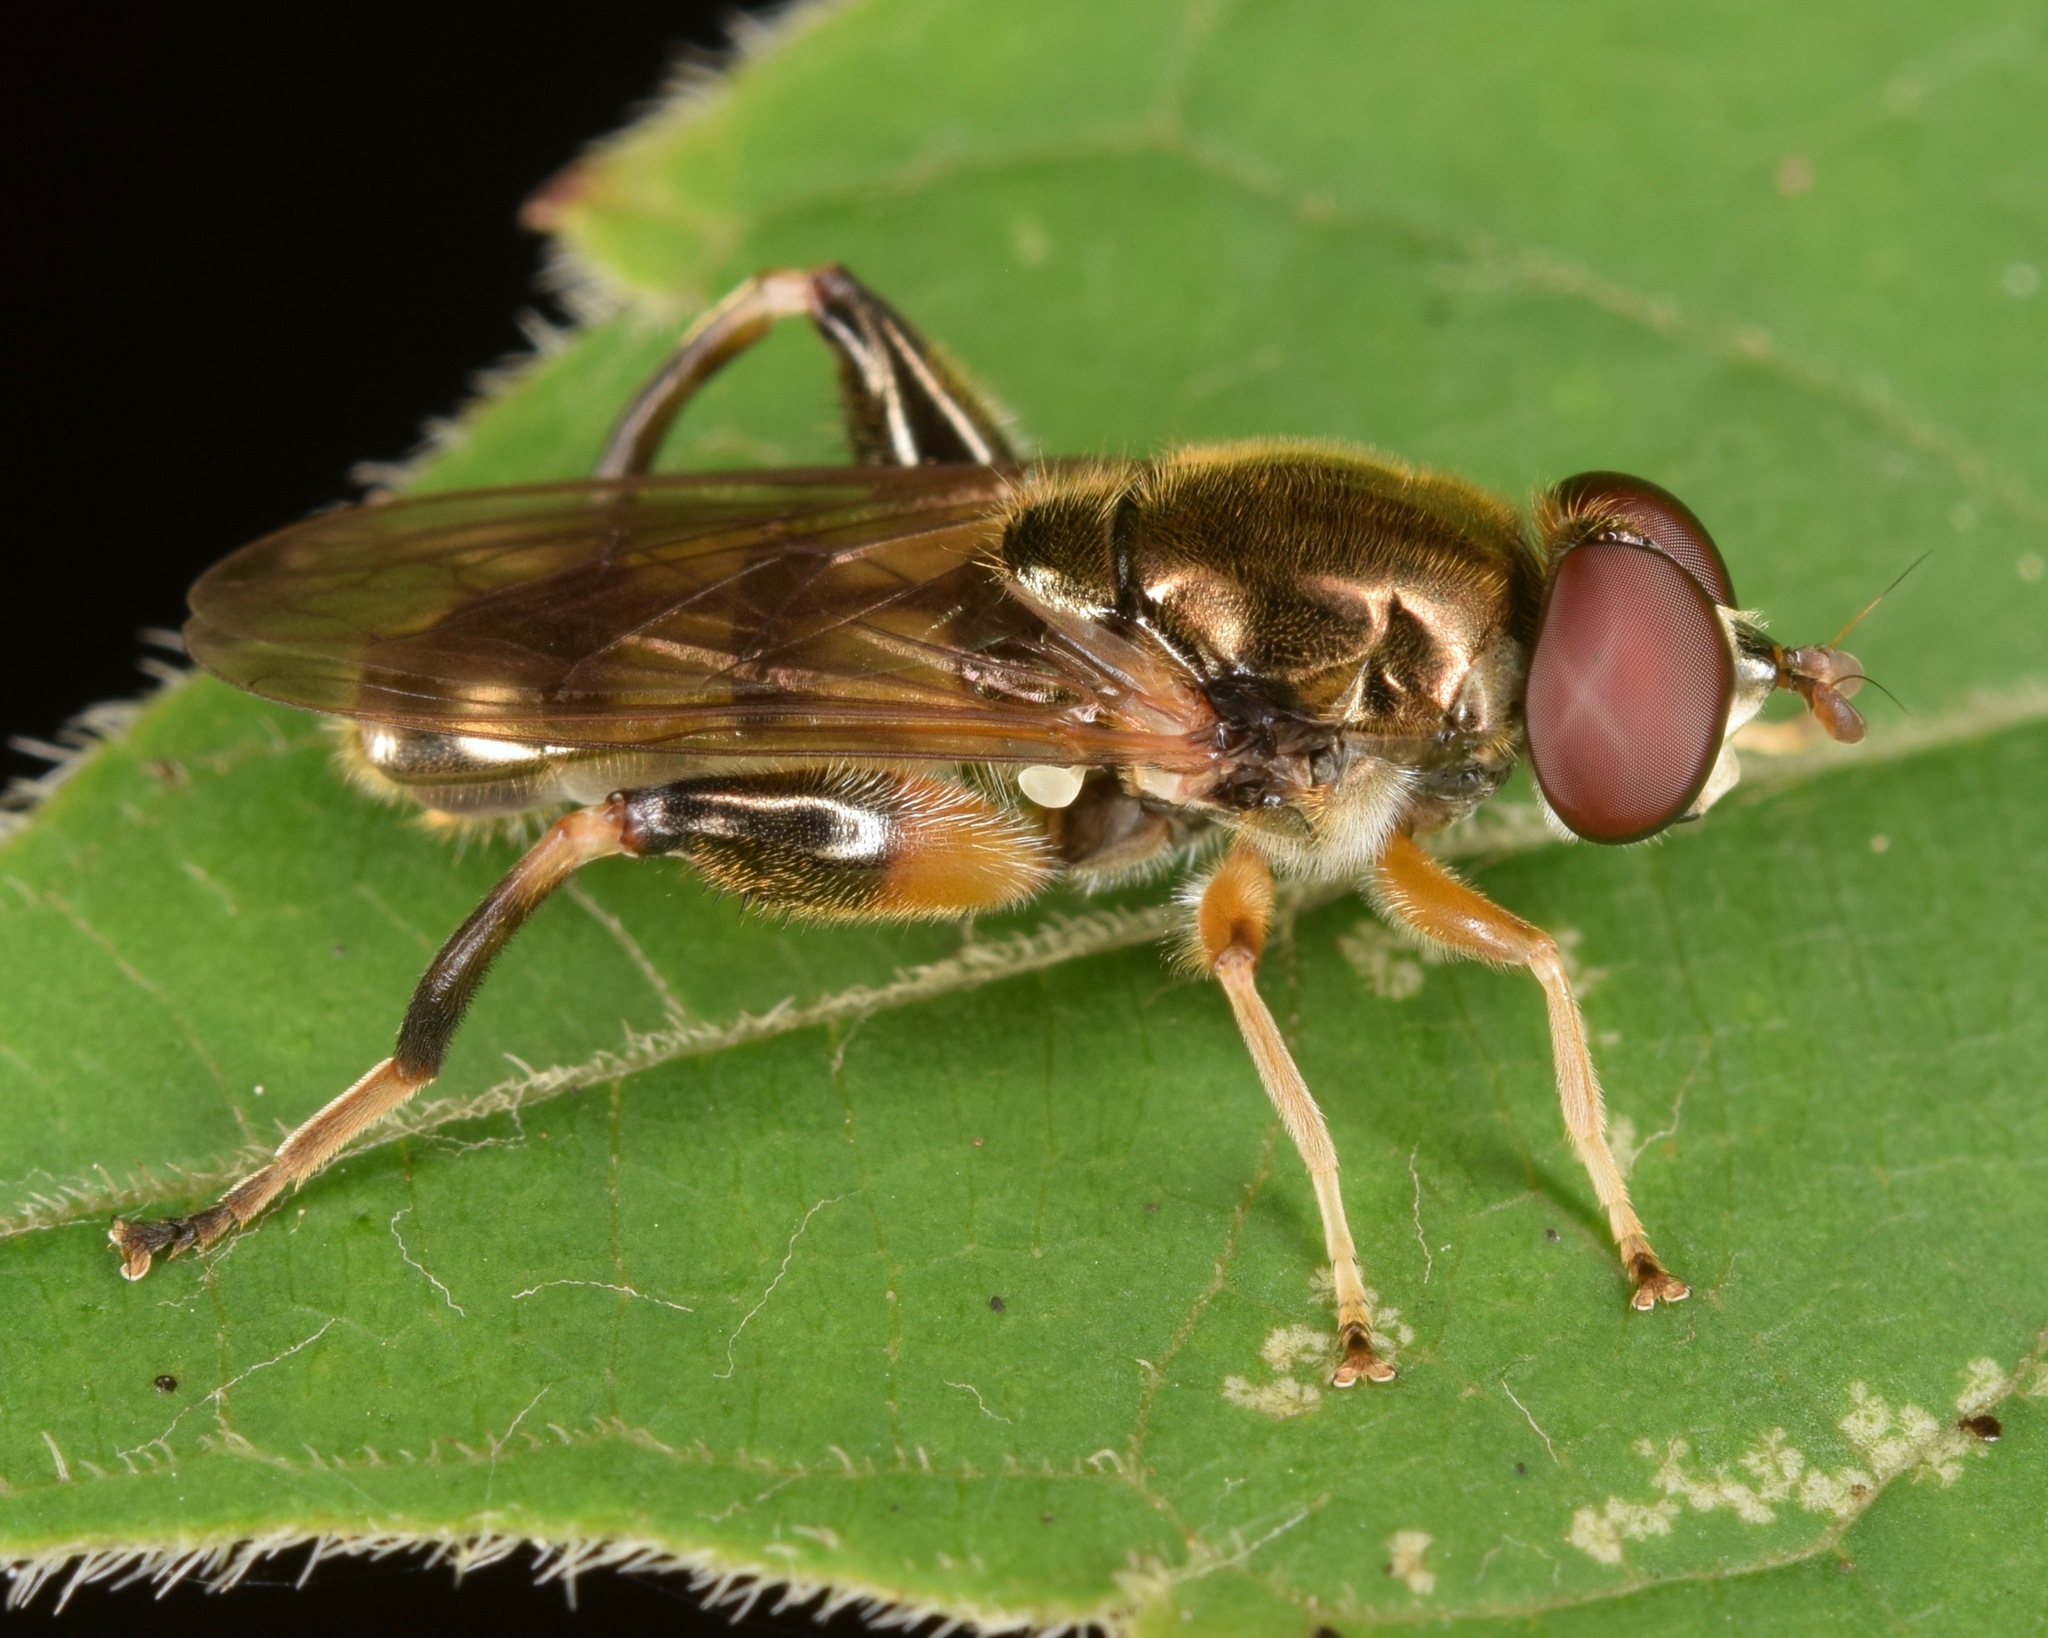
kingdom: Animalia
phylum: Arthropoda
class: Insecta
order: Diptera
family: Syrphidae
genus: Chalcosyrphus
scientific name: Chalcosyrphus metallicus
